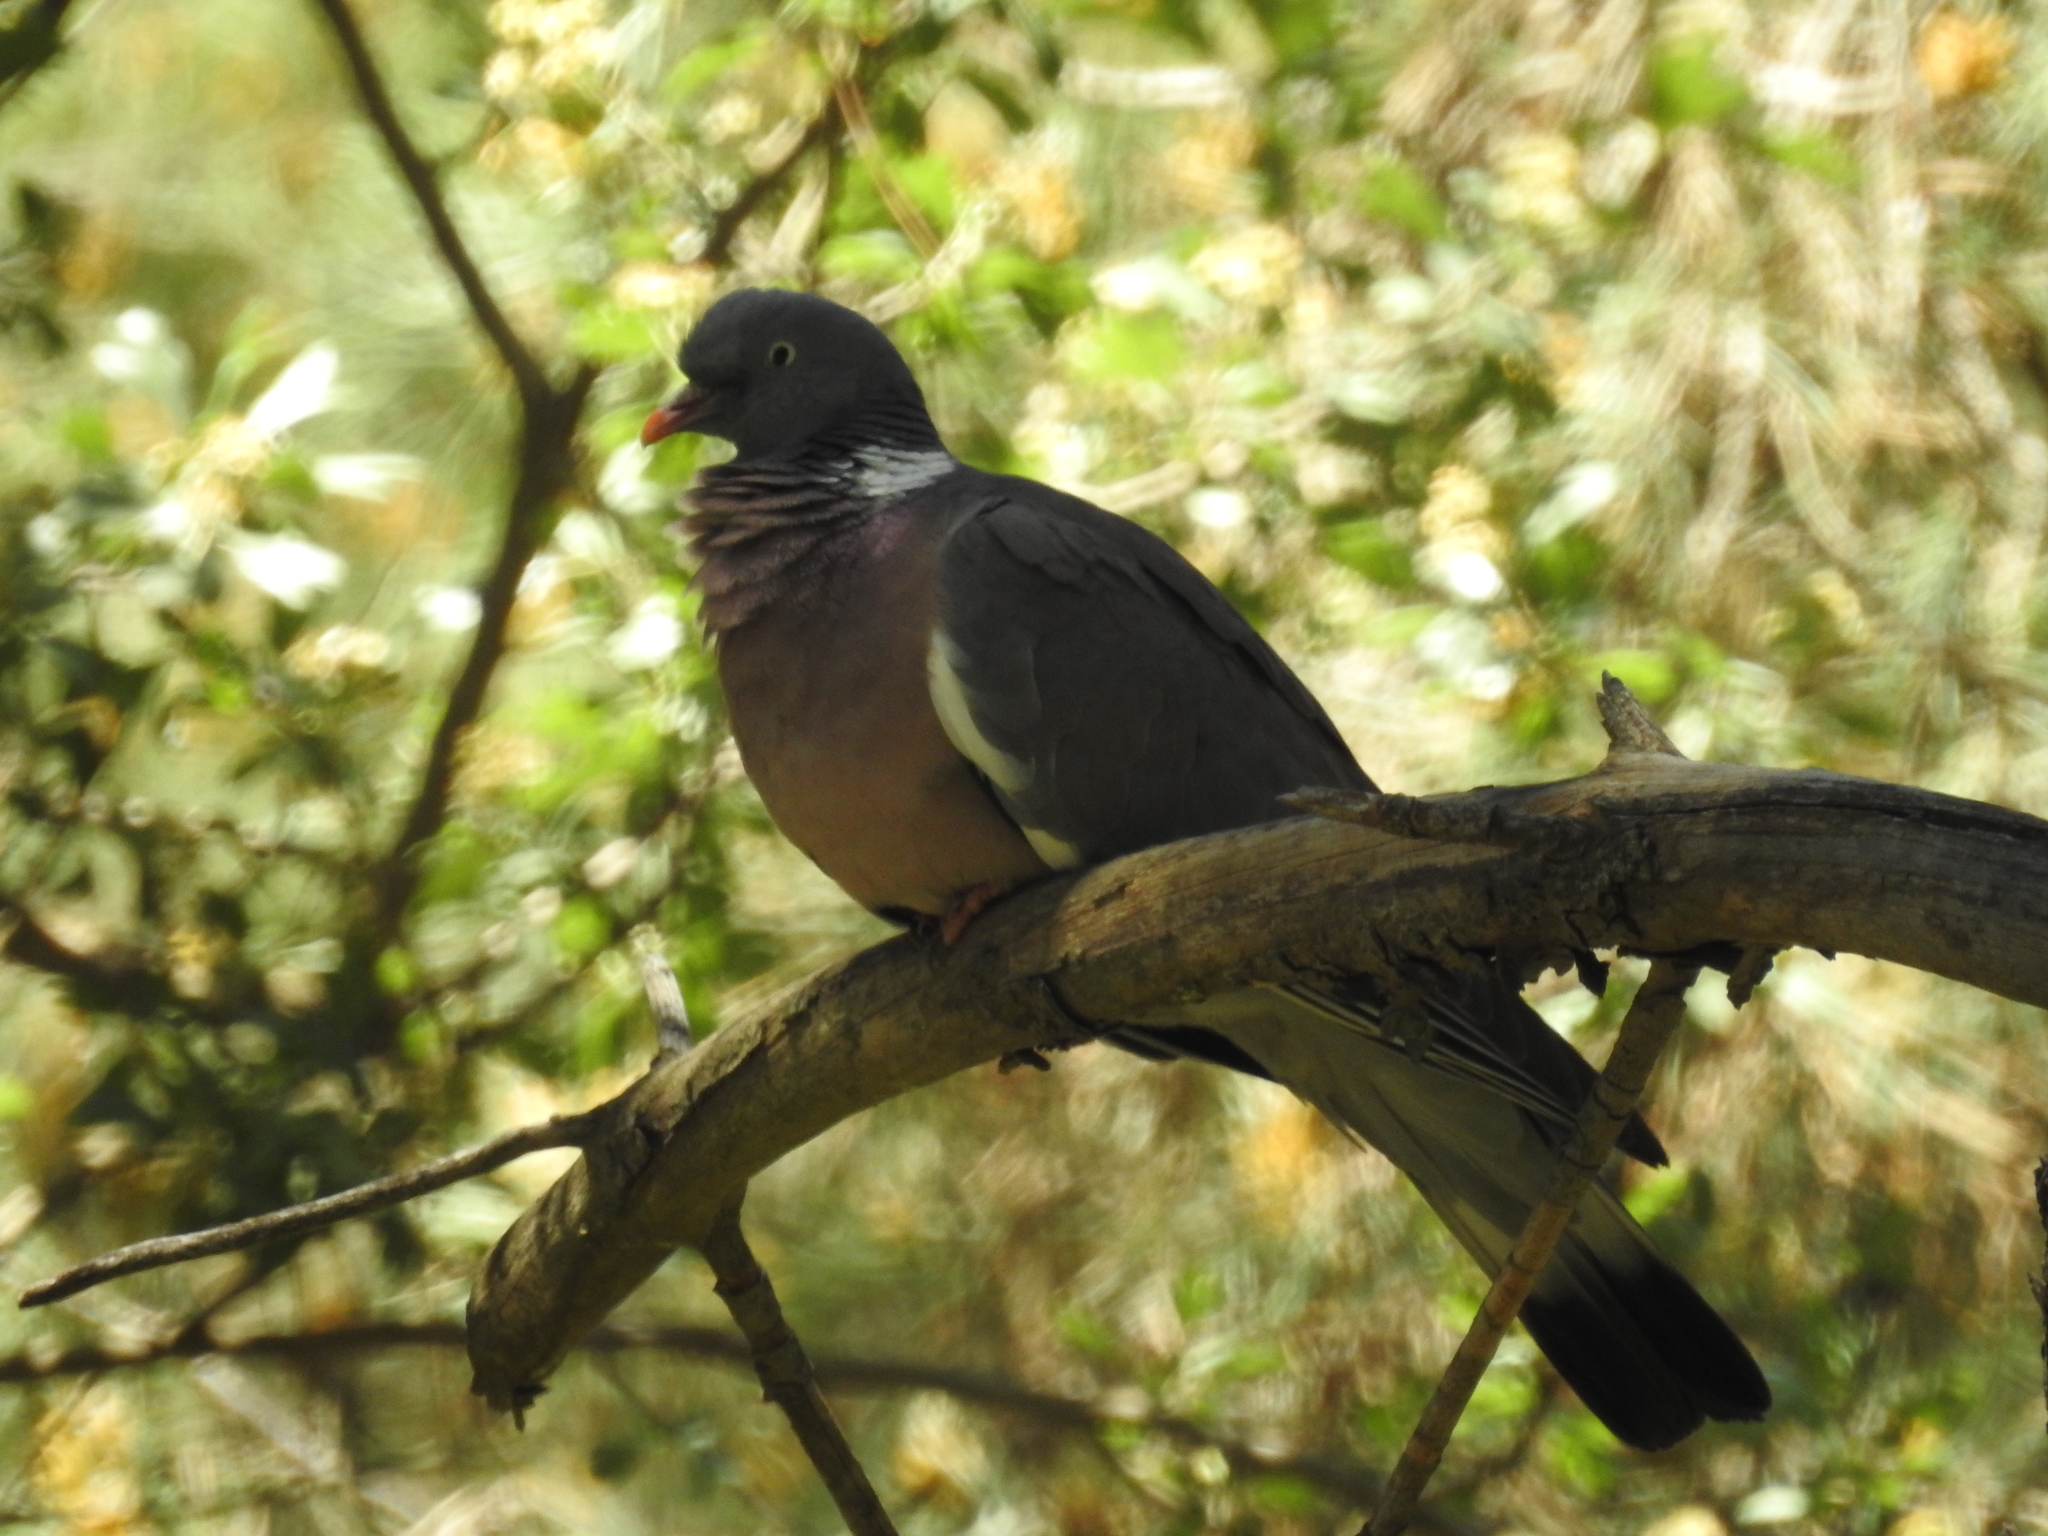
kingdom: Animalia
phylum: Chordata
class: Aves
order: Columbiformes
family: Columbidae
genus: Columba
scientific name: Columba palumbus
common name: Common wood pigeon
